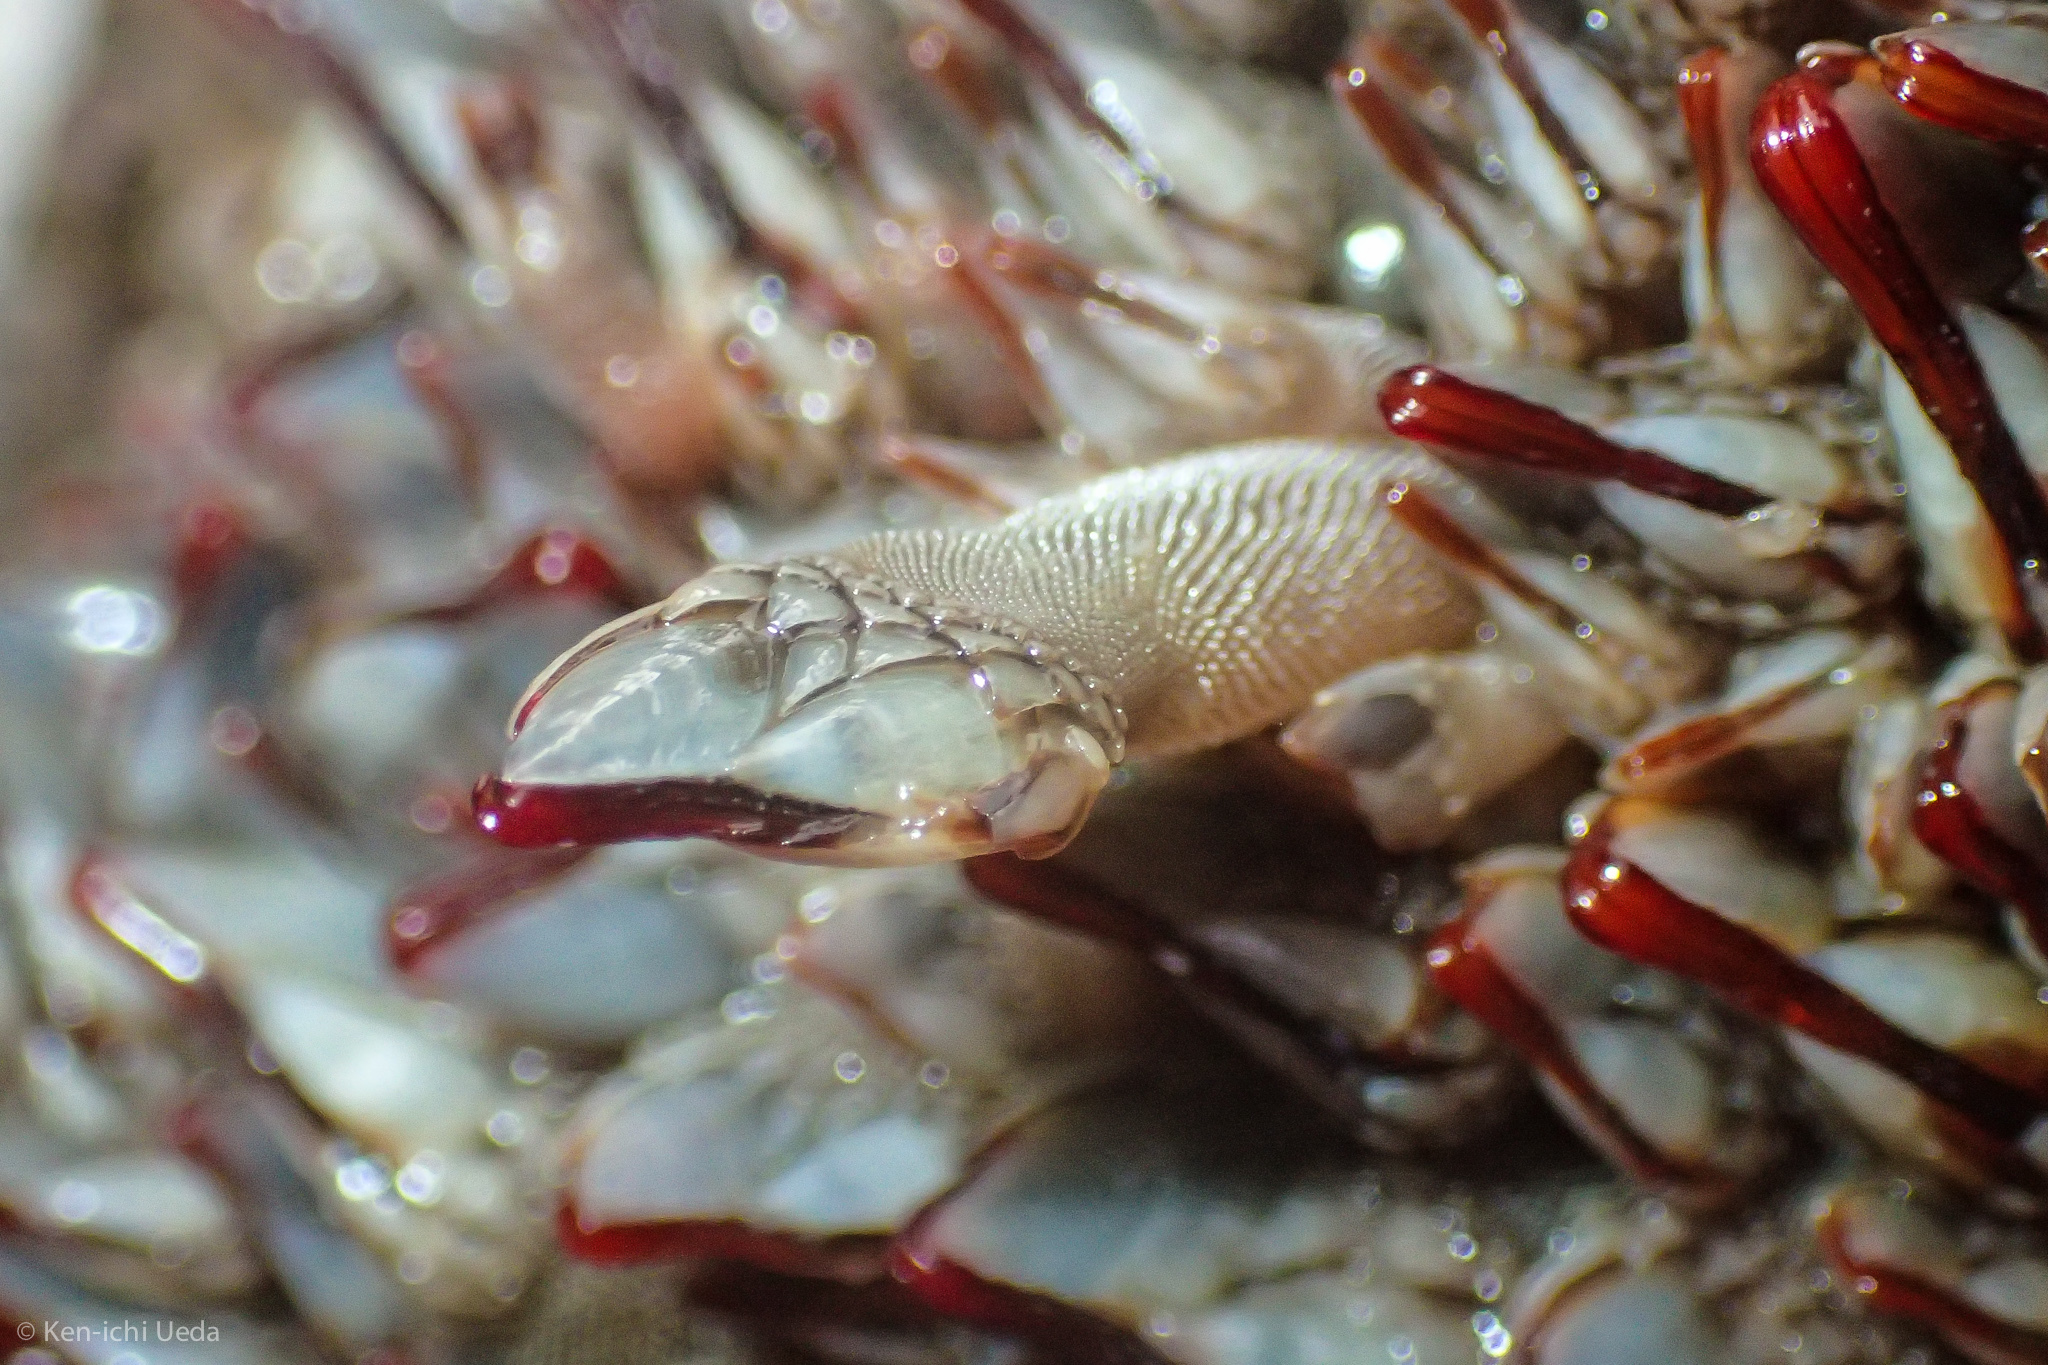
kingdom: Animalia
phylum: Arthropoda
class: Maxillopoda
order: Pedunculata
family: Pollicipedidae
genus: Pollicipes
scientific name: Pollicipes polymerus
